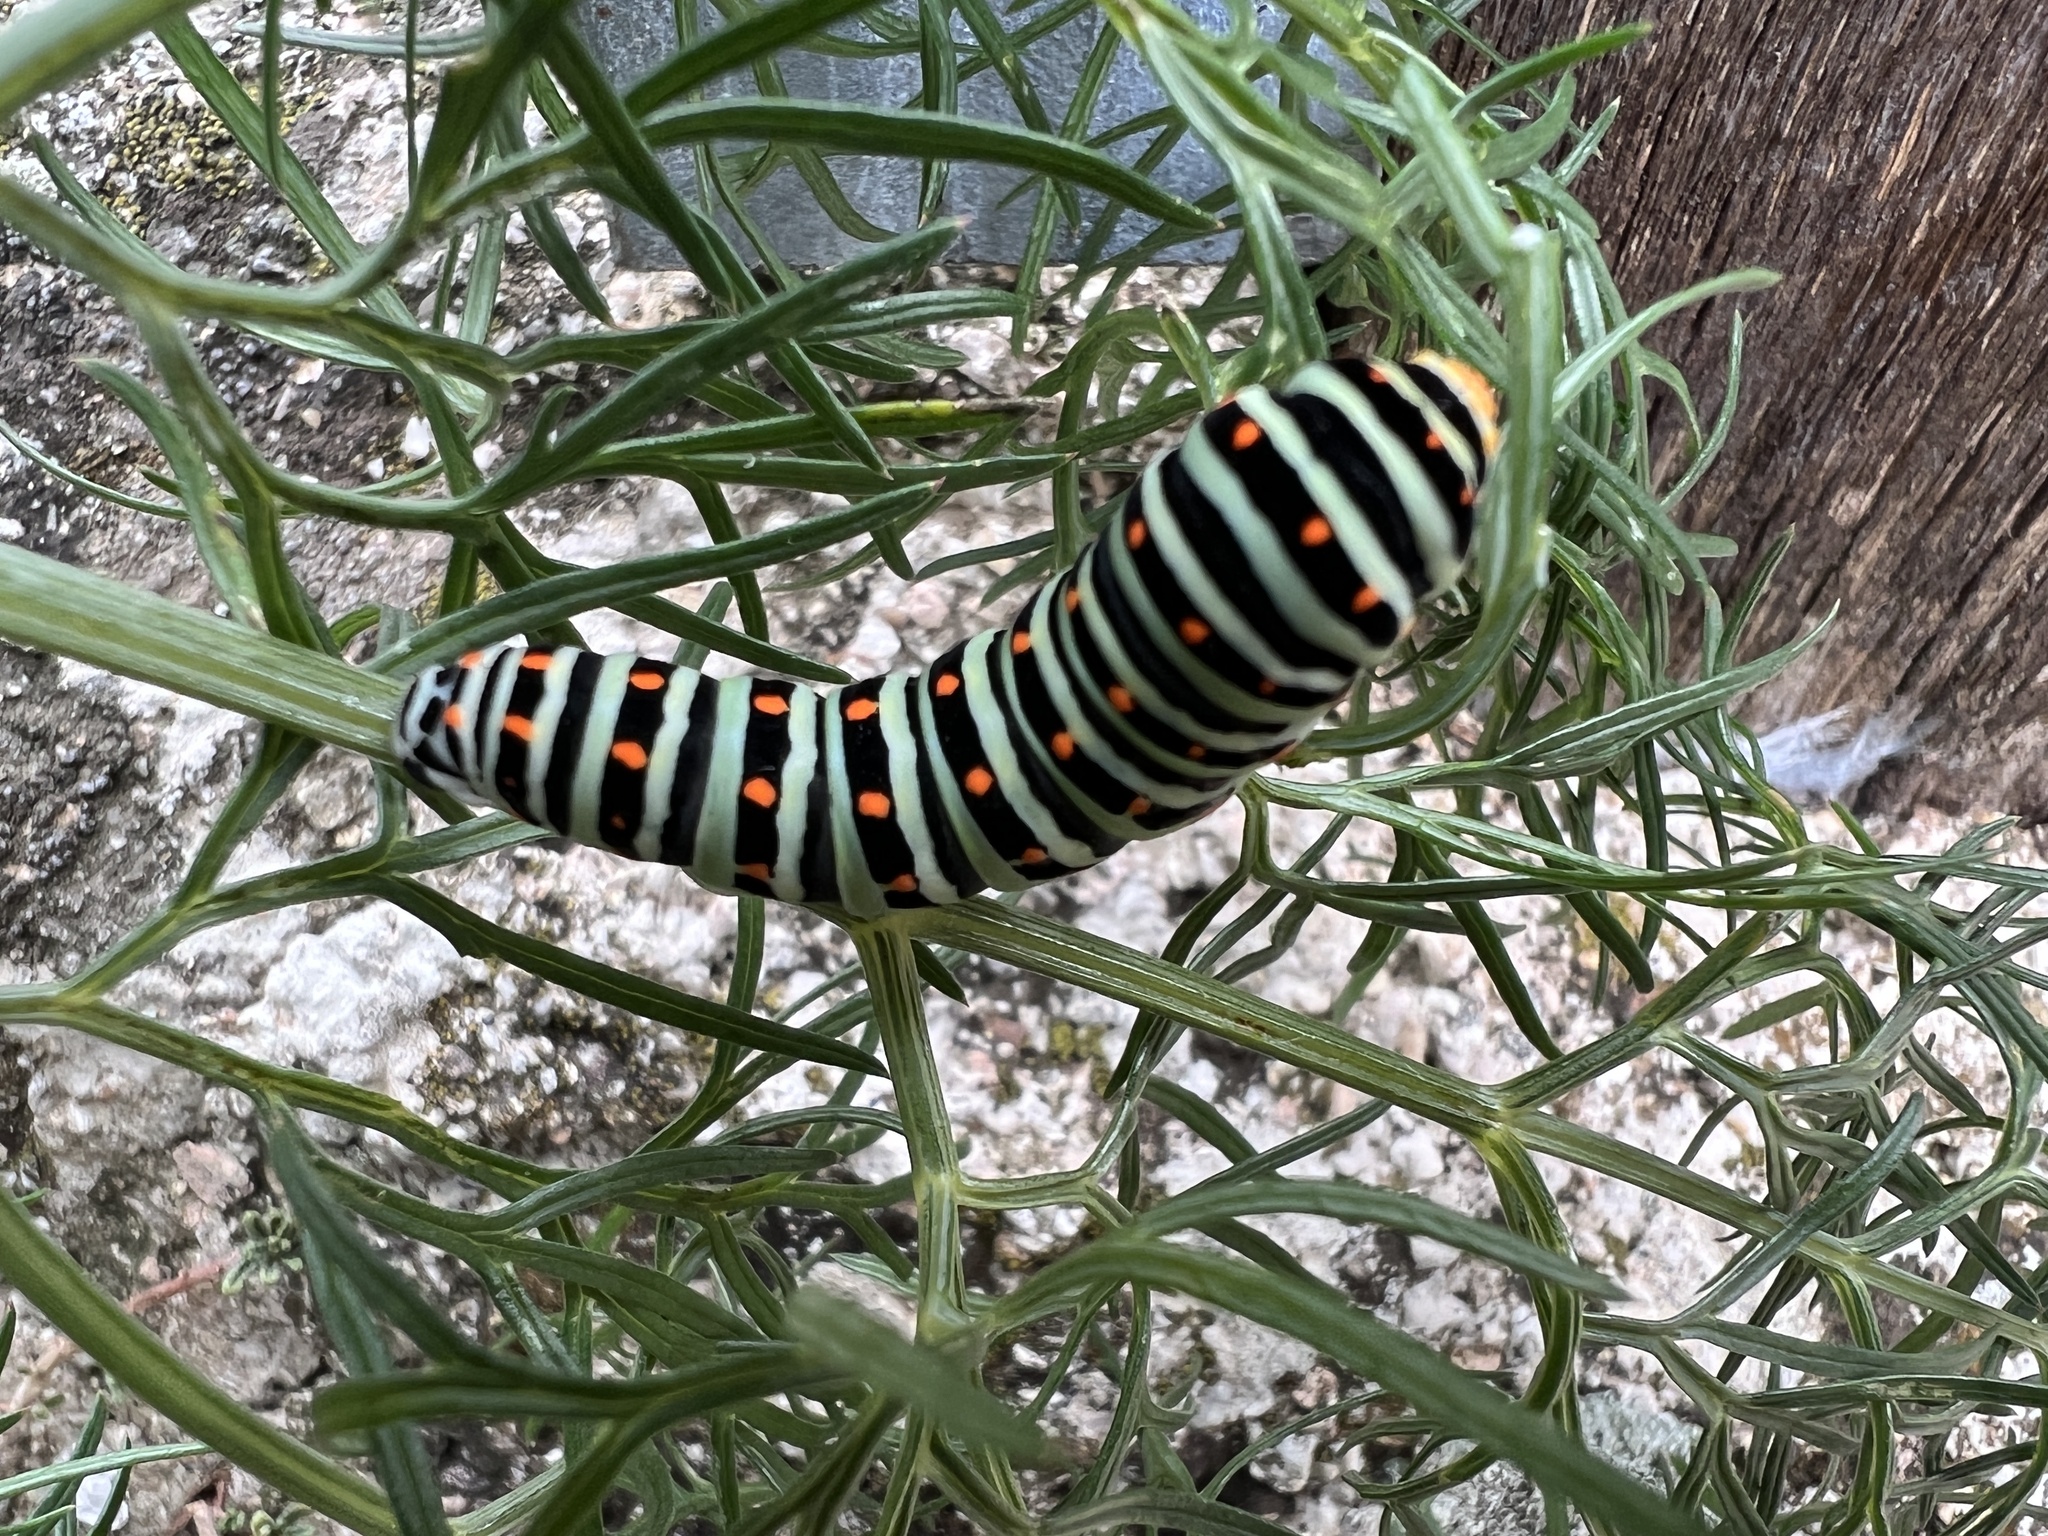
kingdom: Animalia
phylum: Arthropoda
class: Insecta
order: Lepidoptera
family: Papilionidae
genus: Papilio
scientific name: Papilio machaon
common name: Swallowtail
